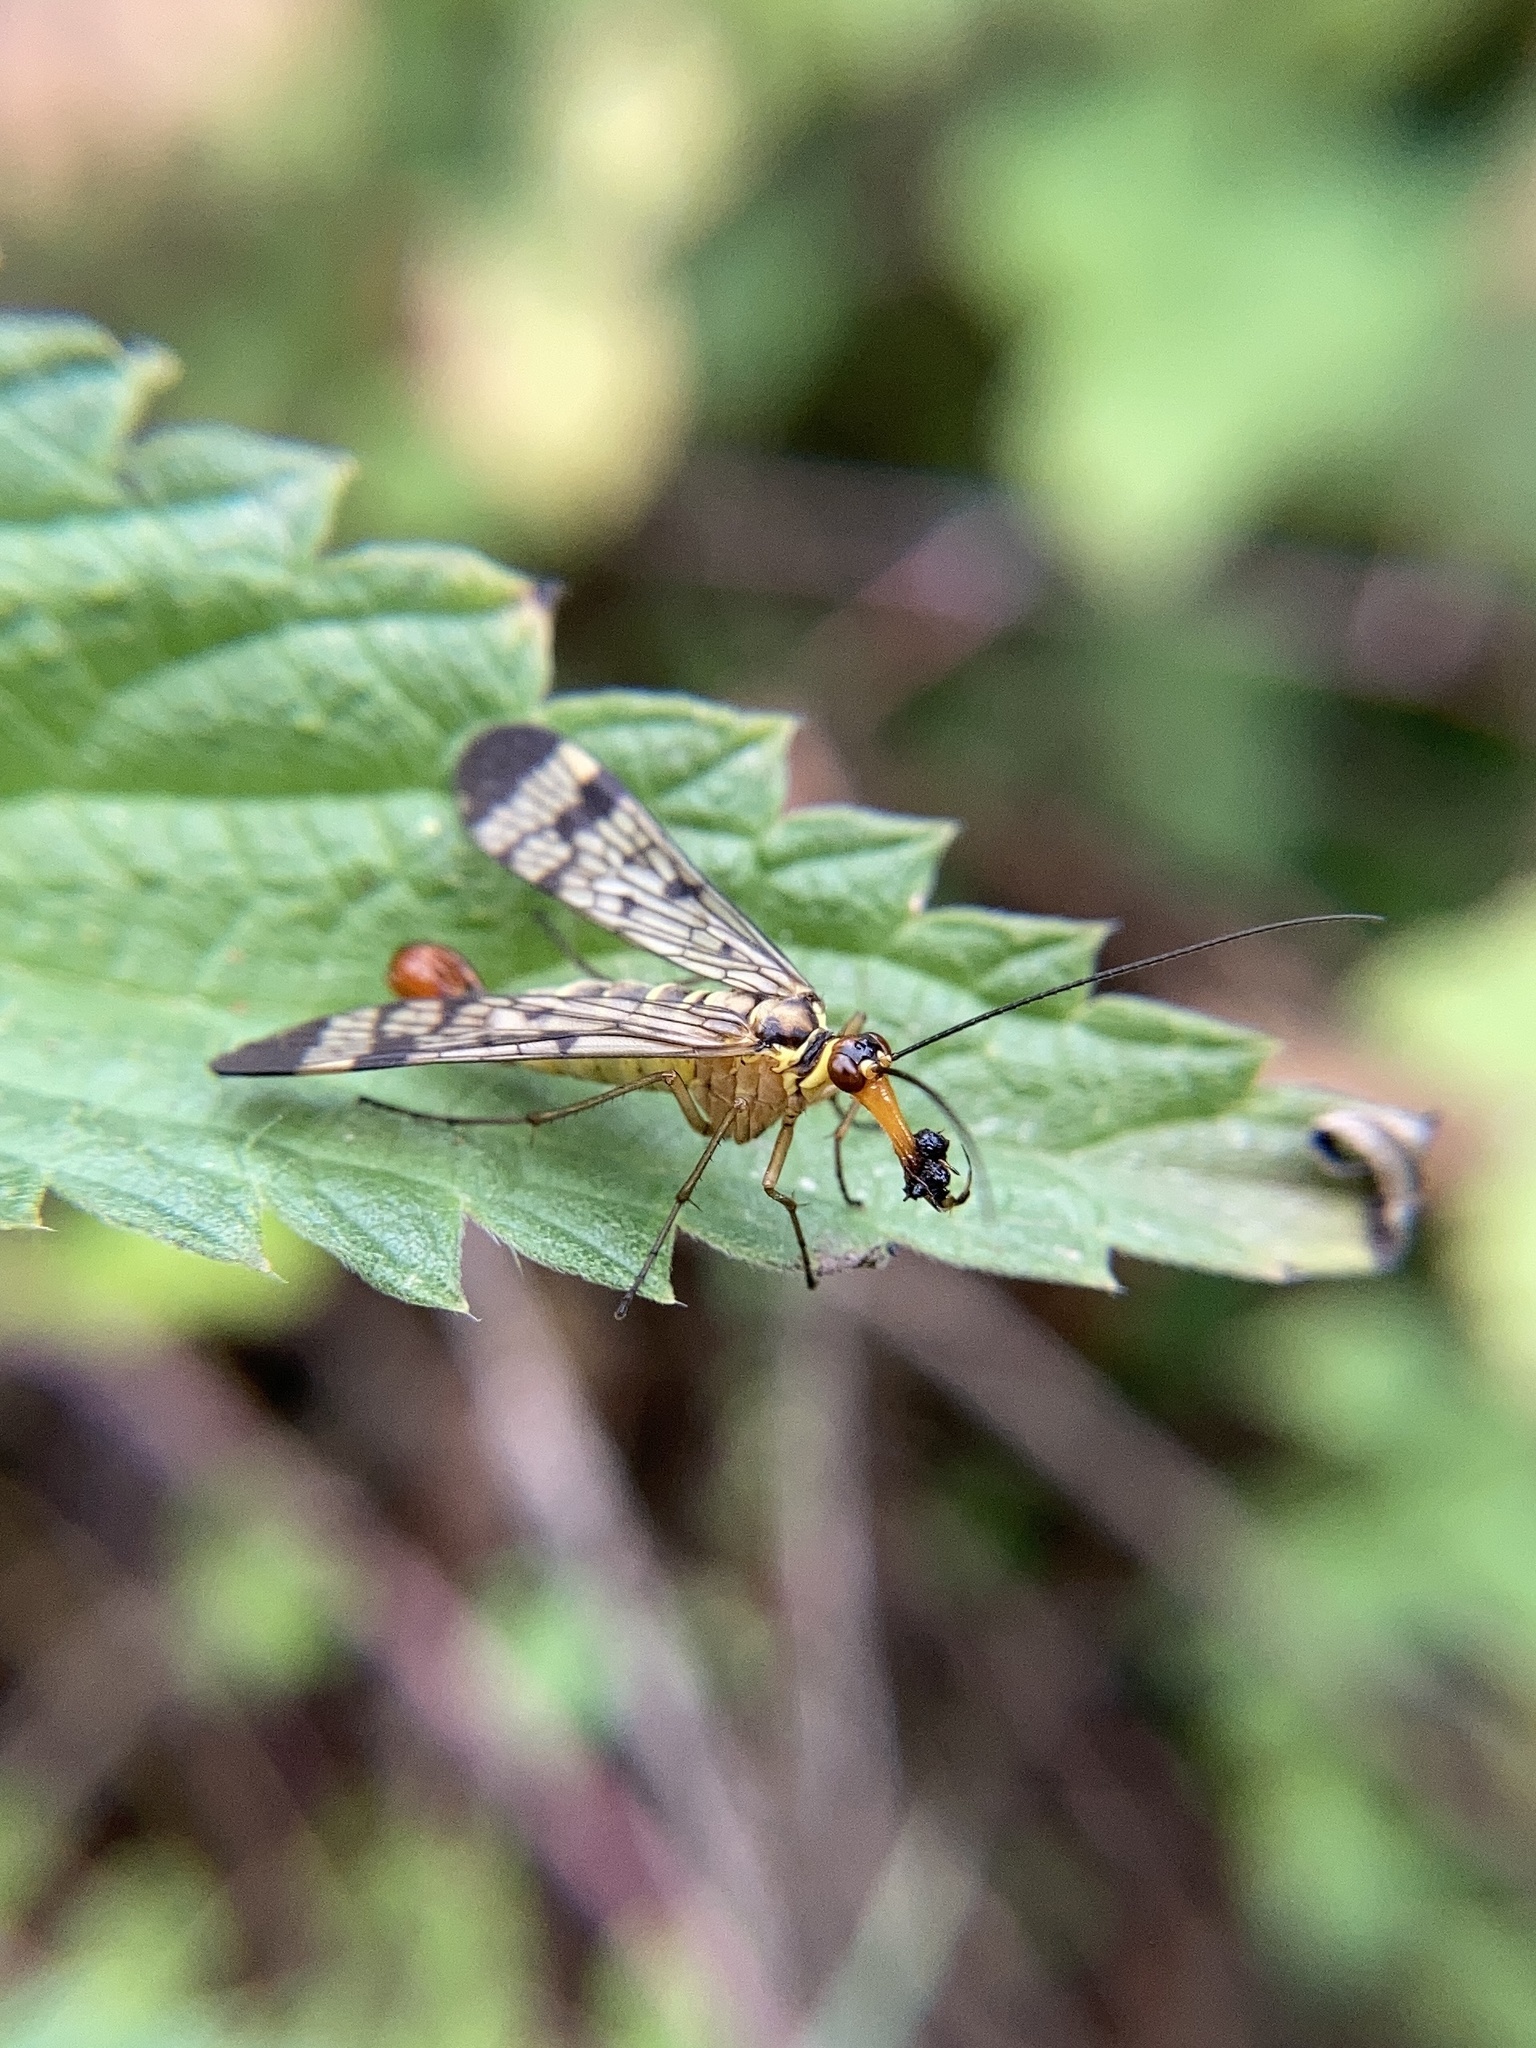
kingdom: Animalia
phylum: Arthropoda
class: Insecta
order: Mecoptera
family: Panorpidae
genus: Panorpa
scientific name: Panorpa communis
